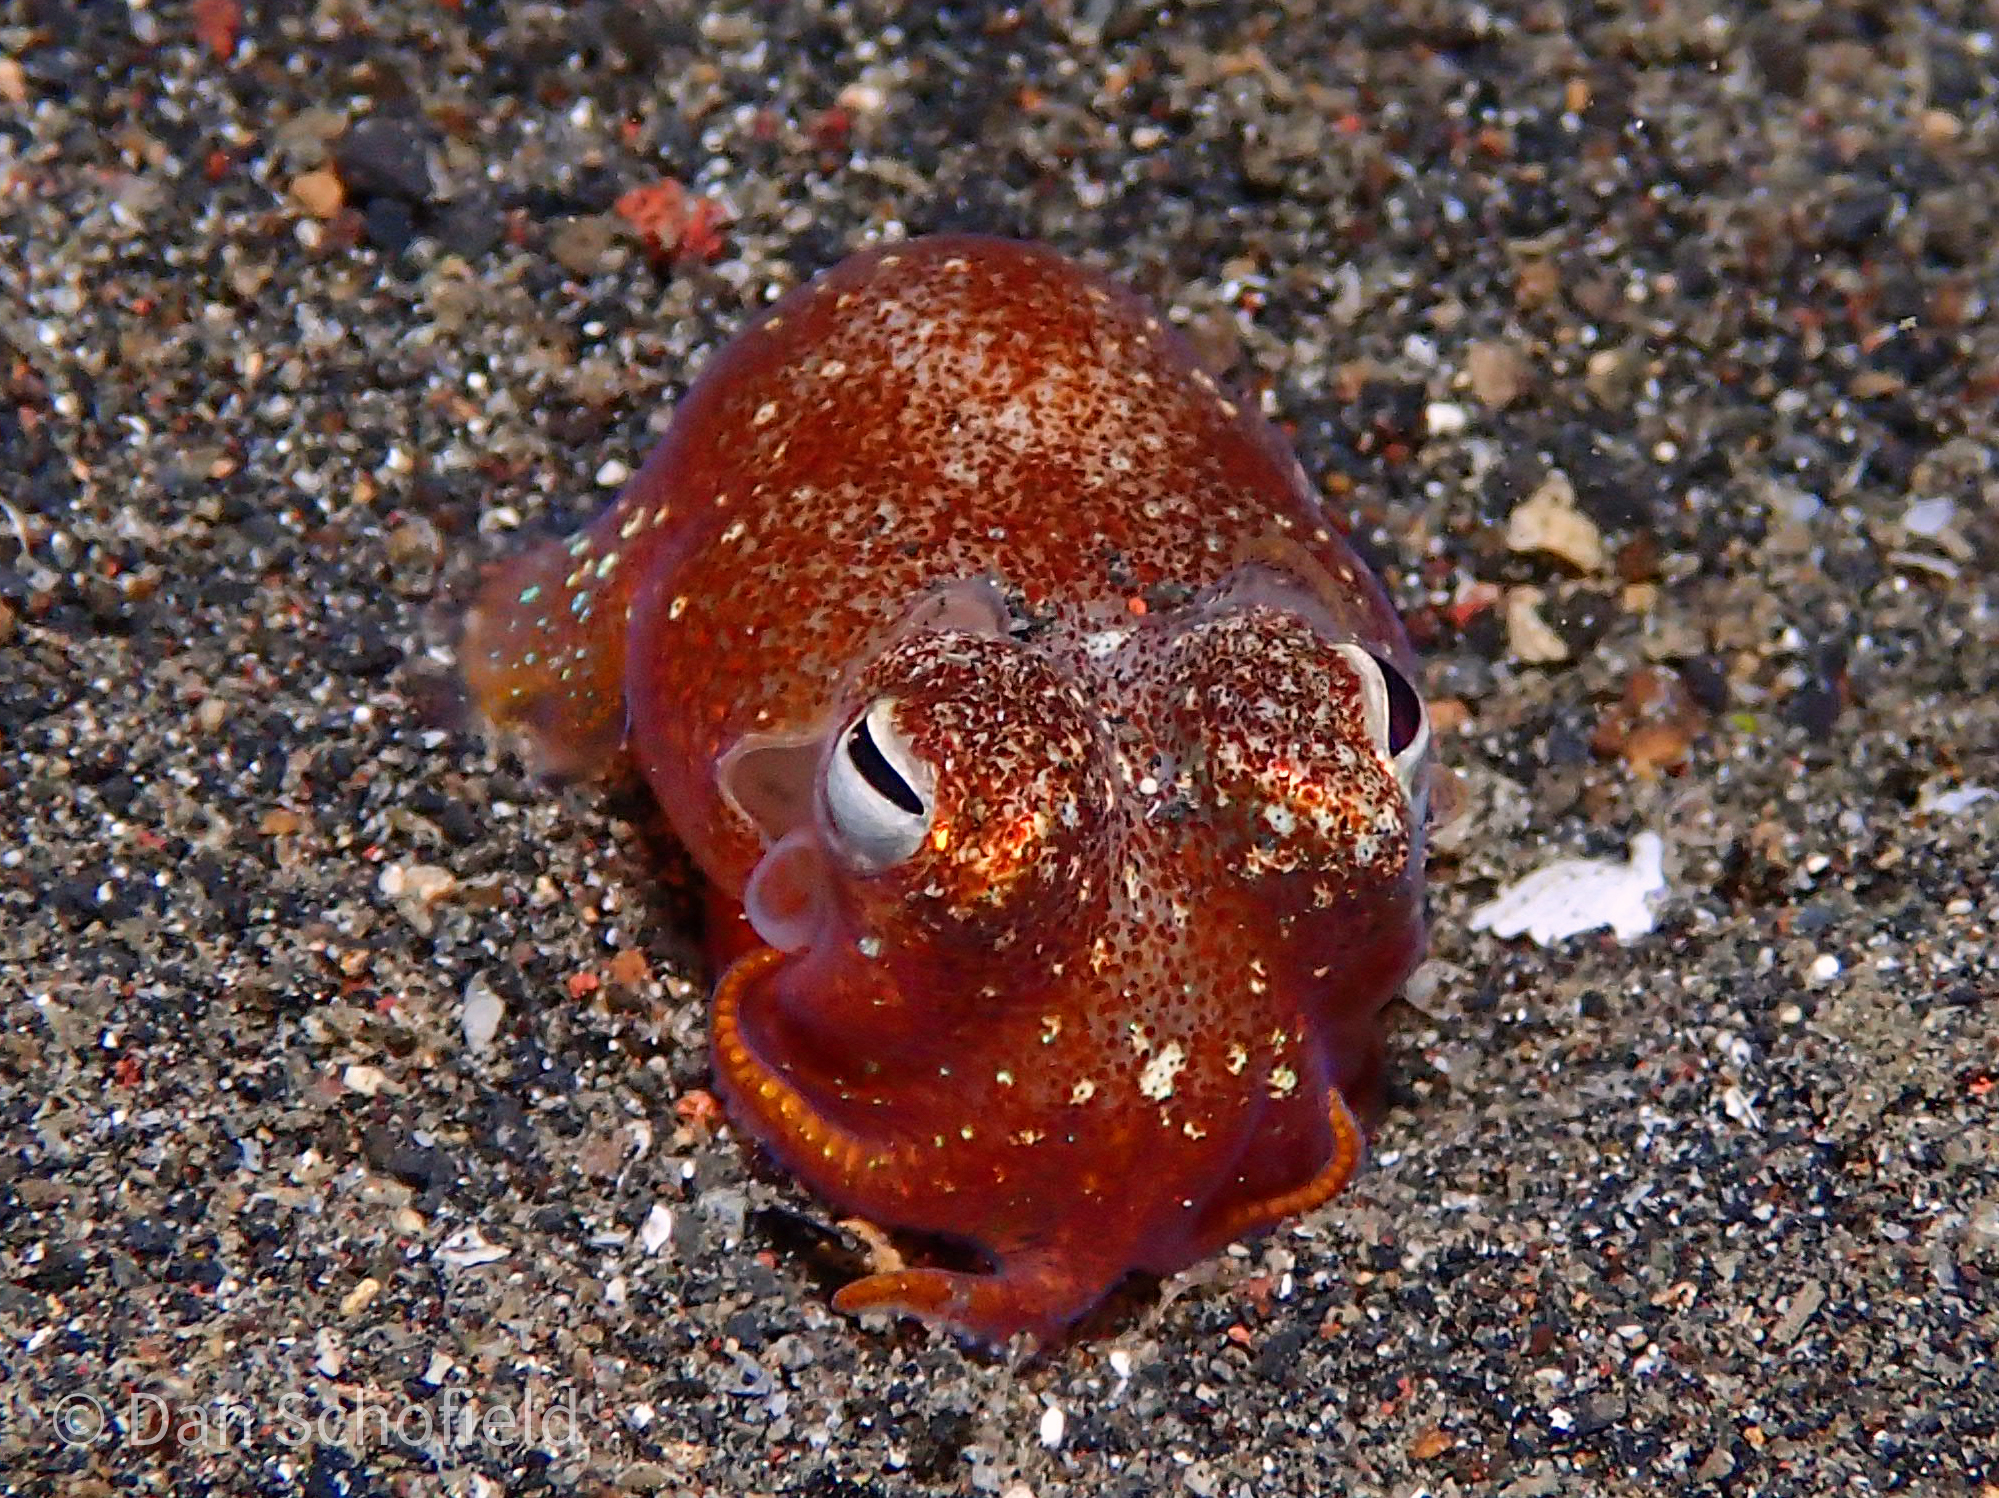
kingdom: Animalia
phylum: Mollusca
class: Cephalopoda
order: Sepiida
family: Sepiadariidae
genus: Sepiadarium
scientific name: Sepiadarium kochii
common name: Koch’s bottletail squid
